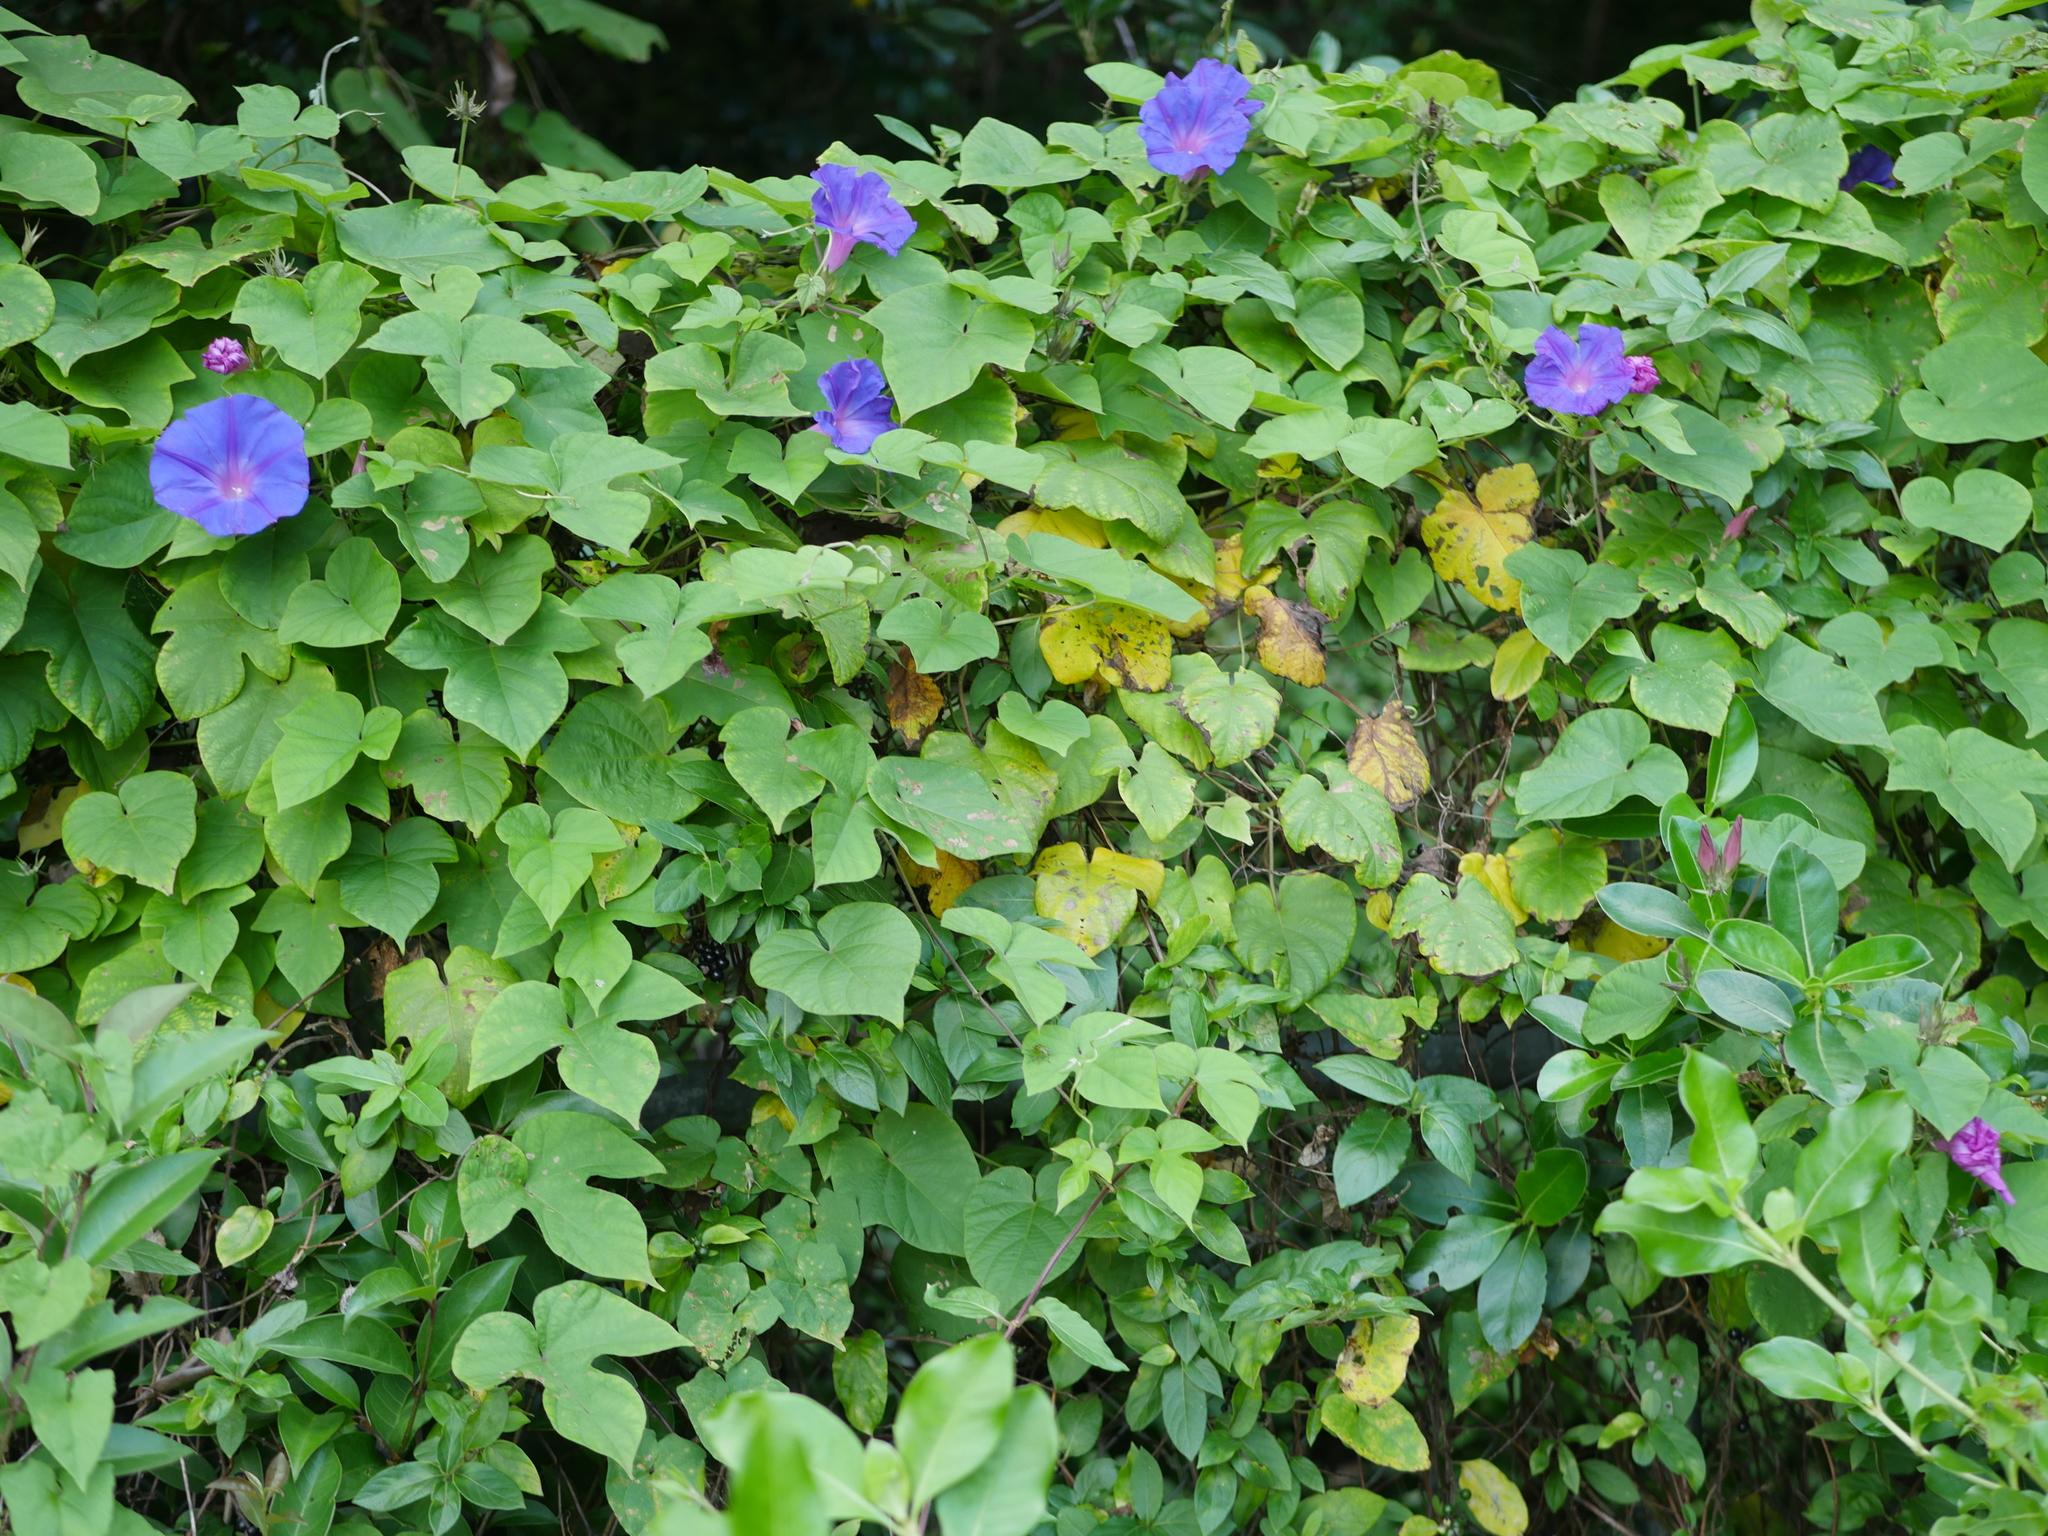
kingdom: Plantae
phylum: Tracheophyta
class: Magnoliopsida
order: Solanales
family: Convolvulaceae
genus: Ipomoea
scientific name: Ipomoea indica
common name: Blue dawnflower
